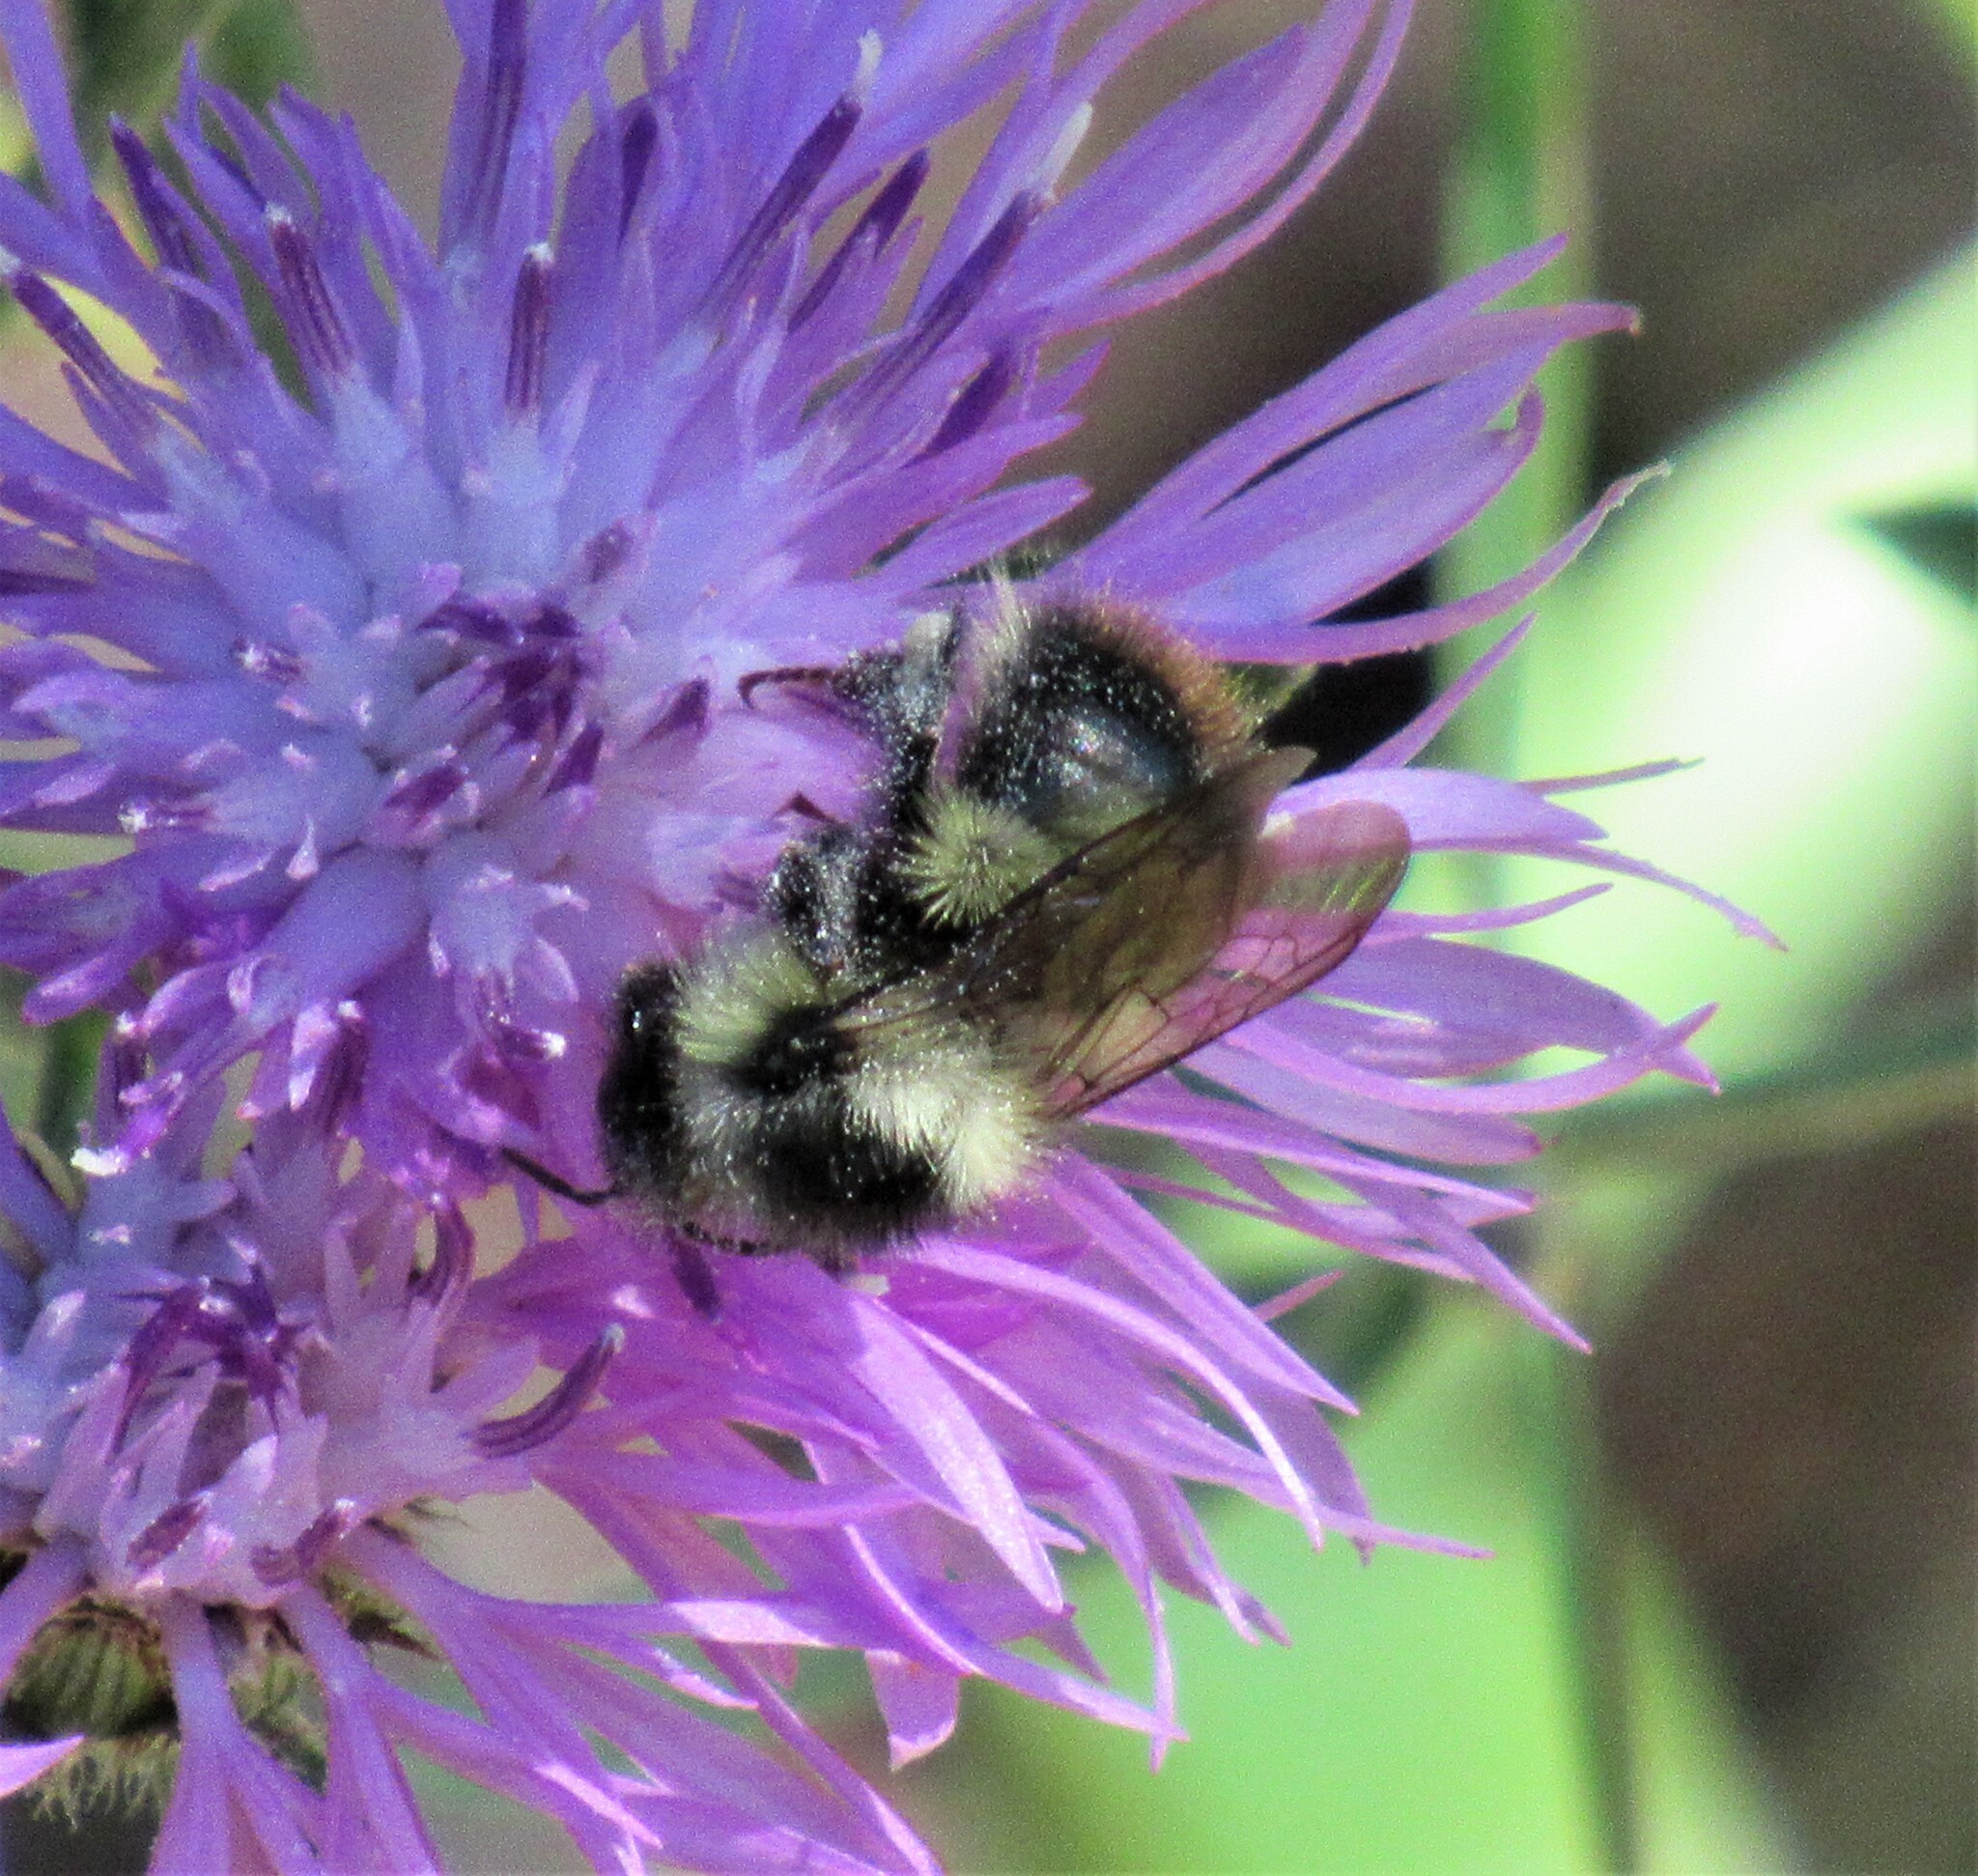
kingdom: Animalia
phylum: Arthropoda
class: Insecta
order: Hymenoptera
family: Apidae
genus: Bombus
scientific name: Bombus mixtus
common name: Fuzzy-horned bumble bee
